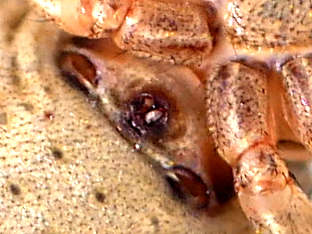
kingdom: Animalia
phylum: Arthropoda
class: Arachnida
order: Araneae
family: Thomisidae
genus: Xysticus
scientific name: Xysticus kochi
